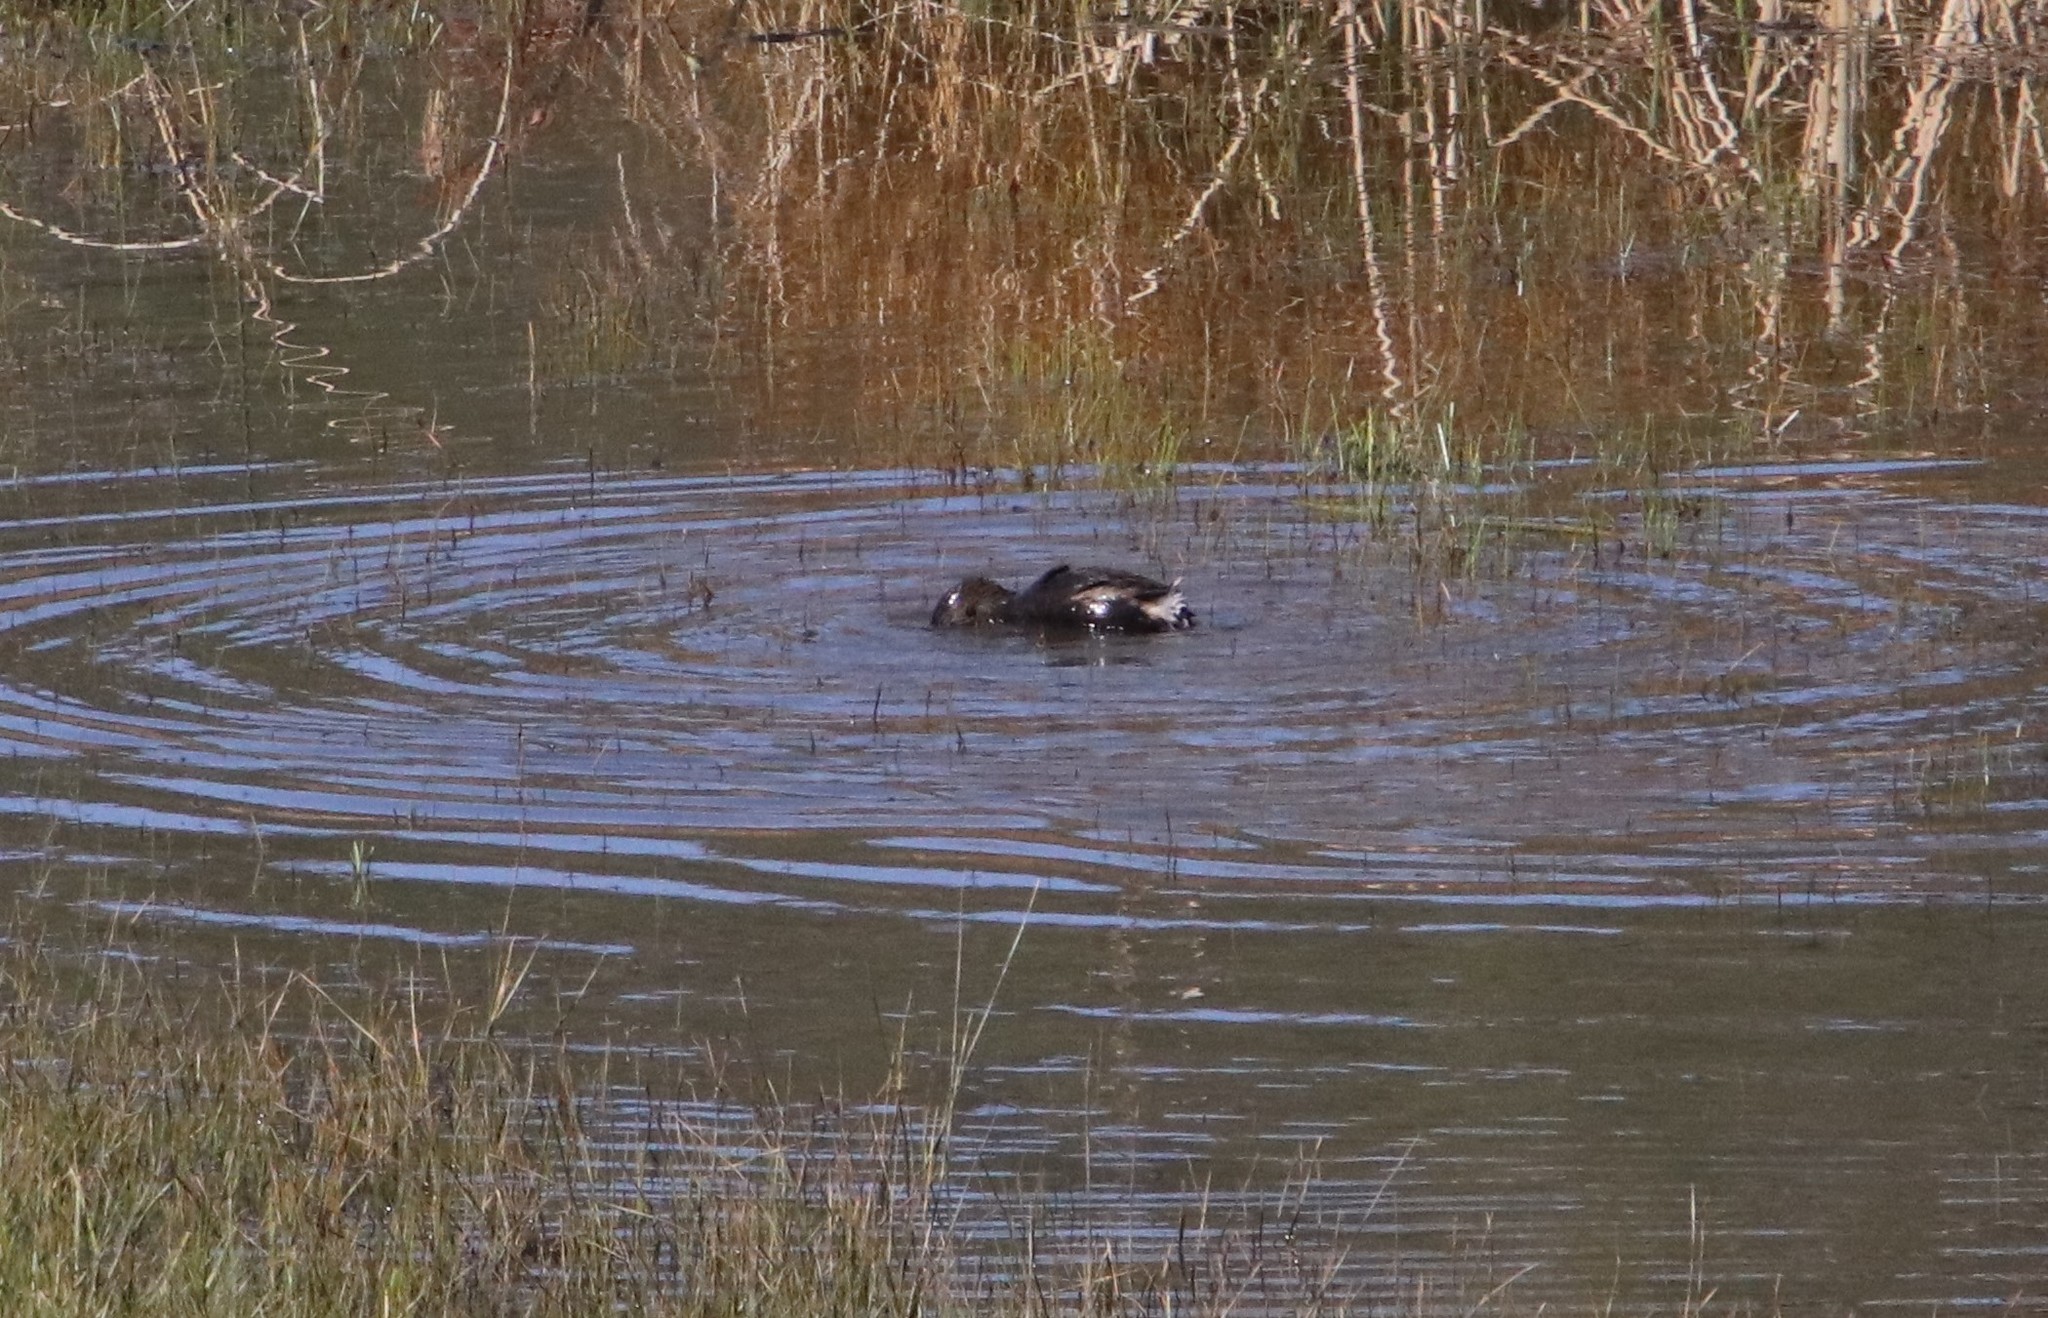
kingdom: Animalia
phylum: Chordata
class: Aves
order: Podicipediformes
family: Podicipedidae
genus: Podilymbus
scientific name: Podilymbus podiceps
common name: Pied-billed grebe
